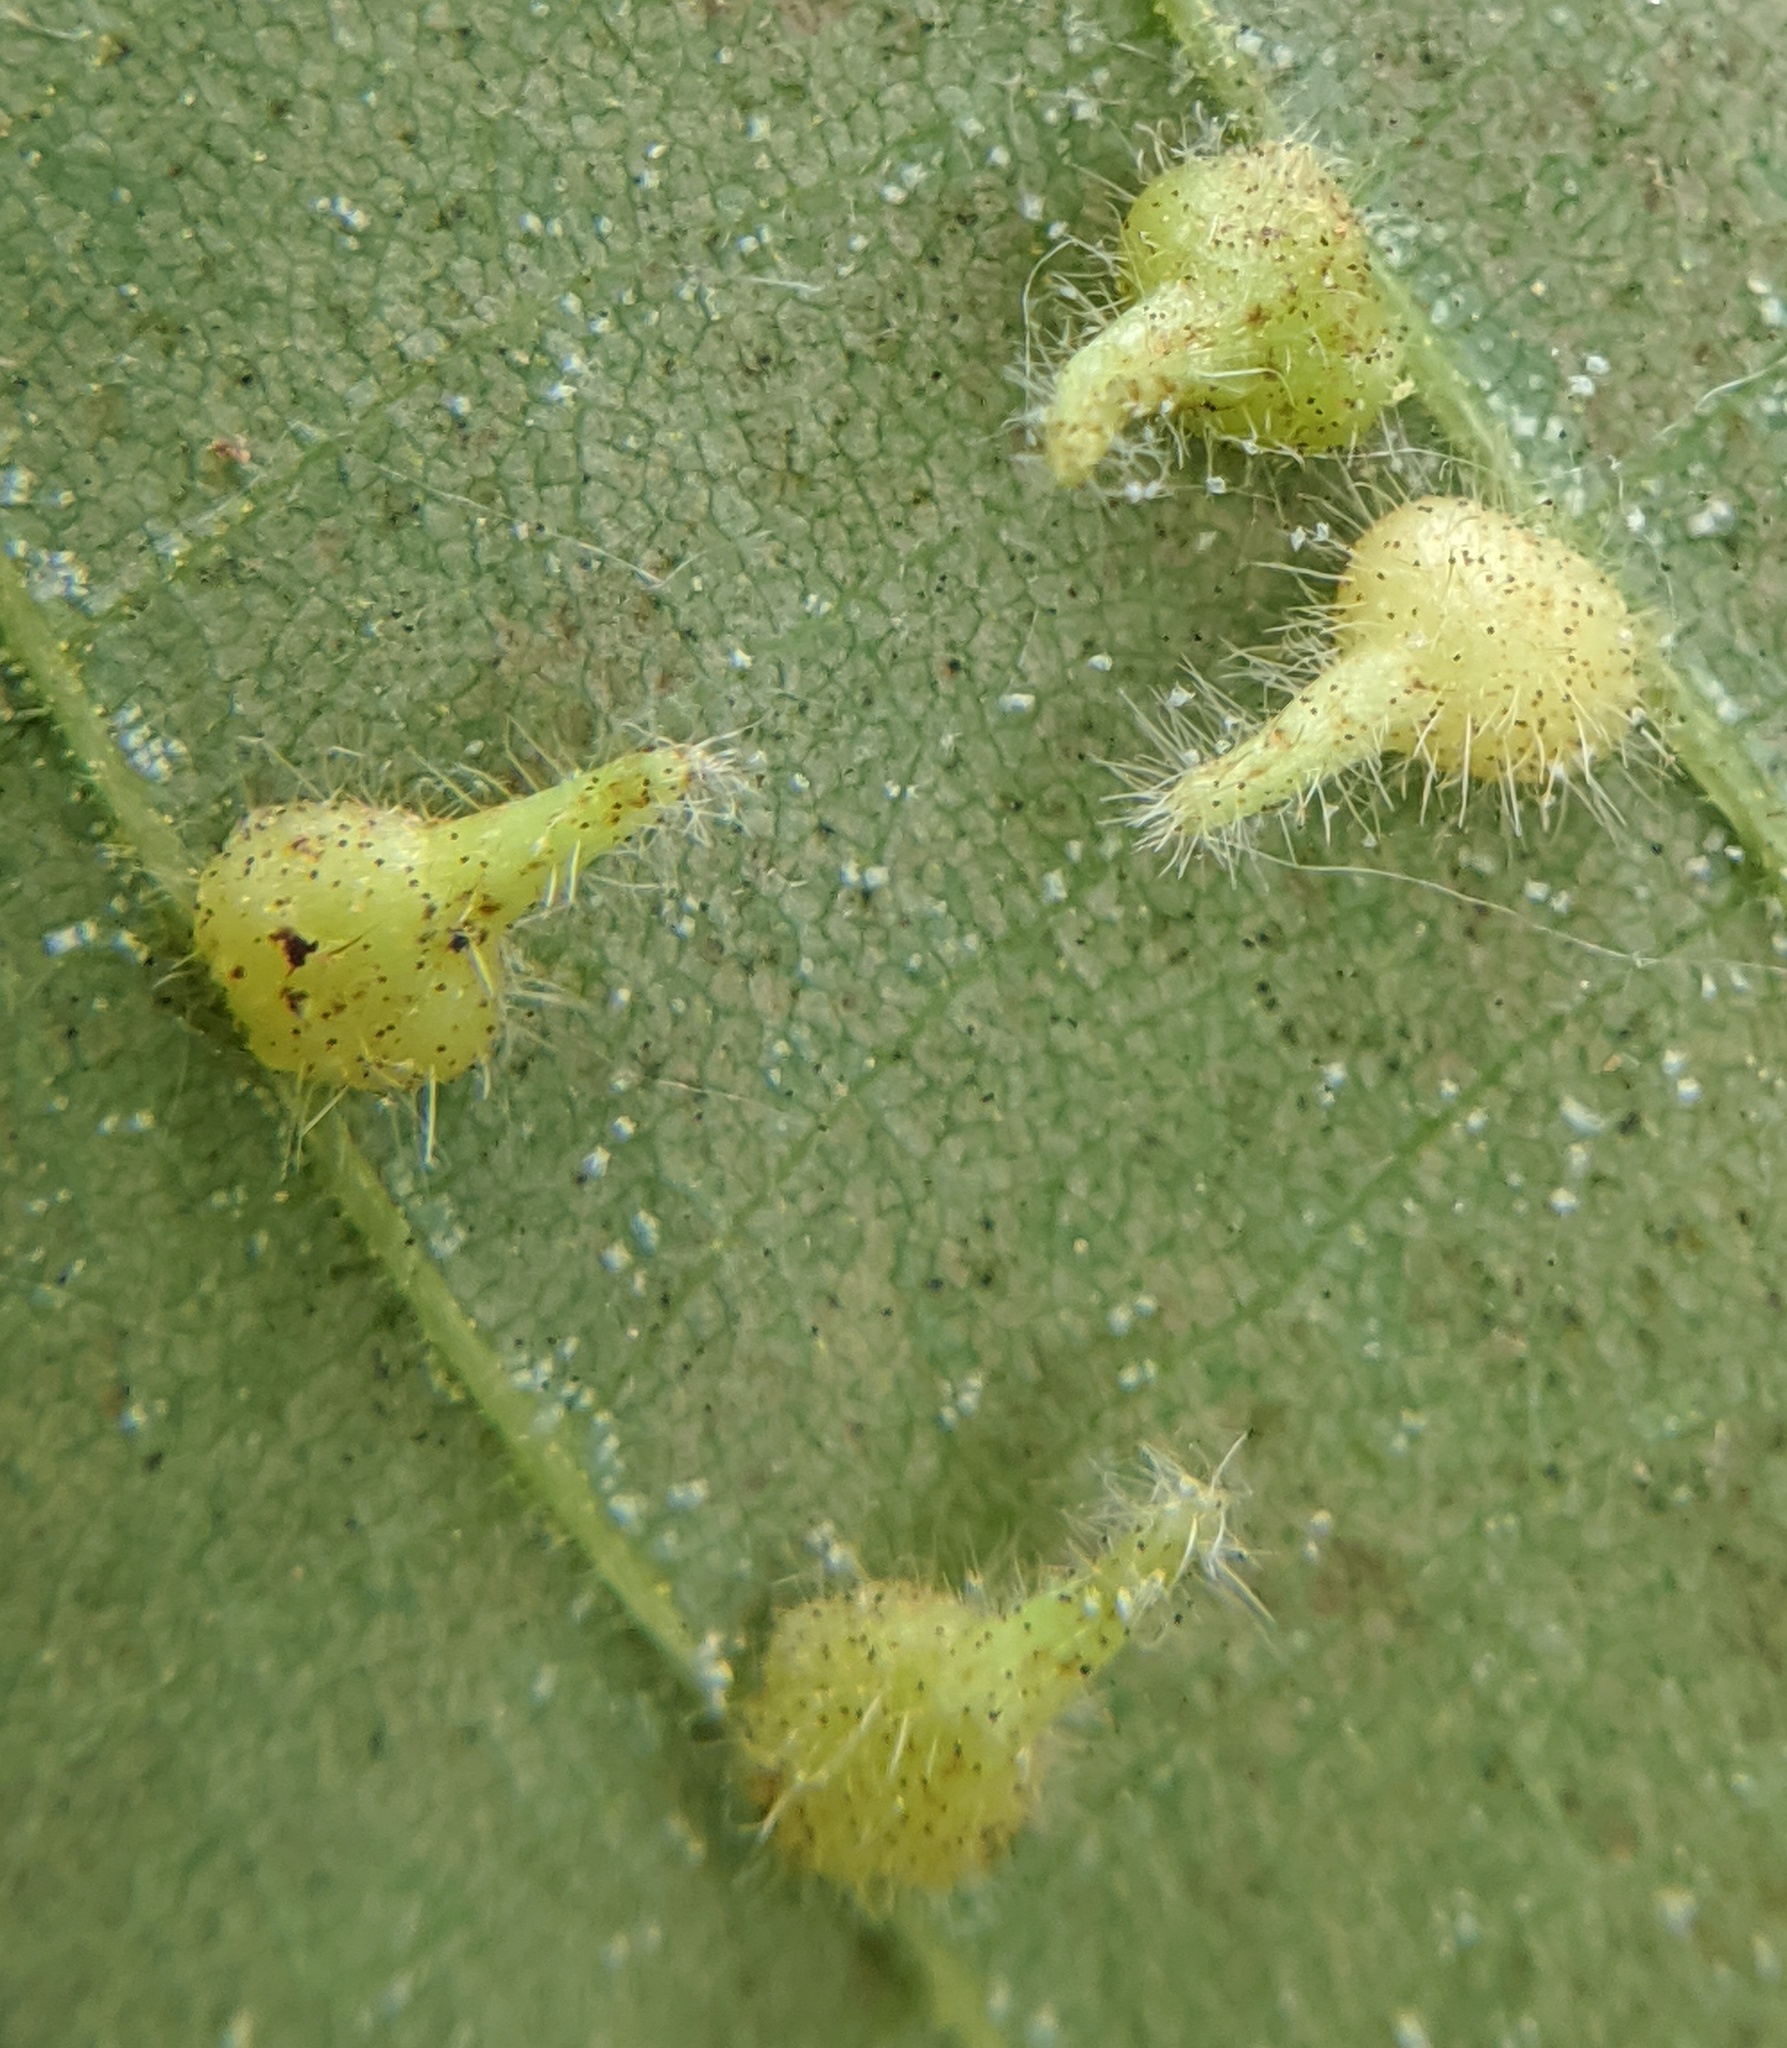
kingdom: Animalia
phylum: Arthropoda
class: Insecta
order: Diptera
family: Cecidomyiidae
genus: Caryomyia
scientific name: Caryomyia inclinata
